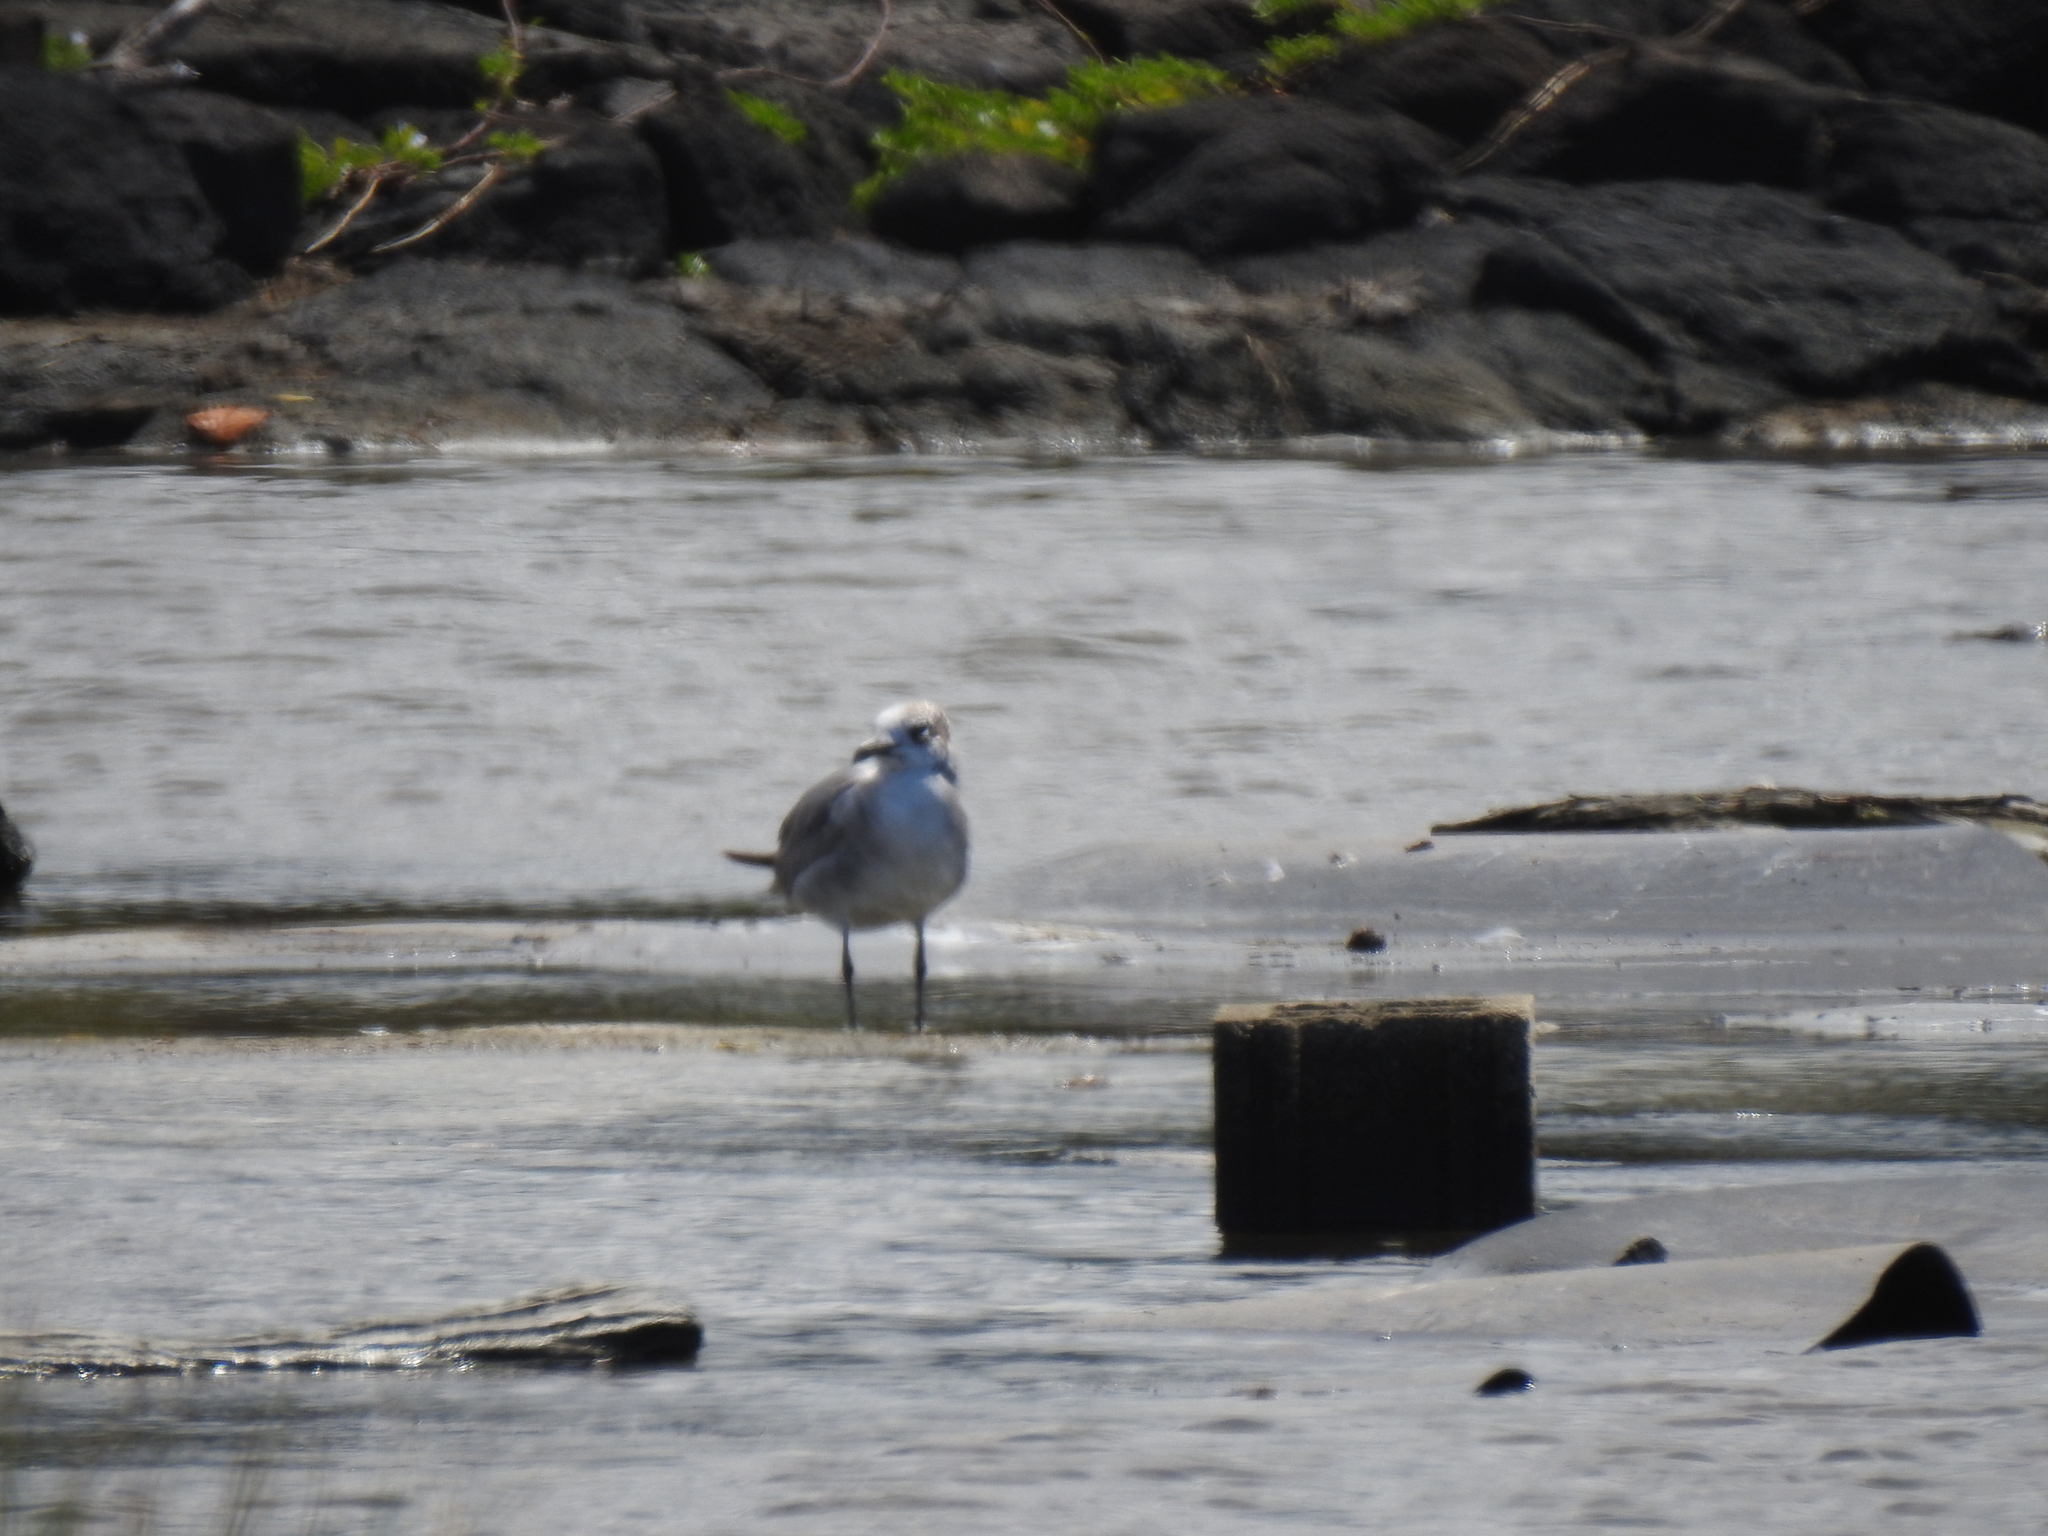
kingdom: Animalia
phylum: Chordata
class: Aves
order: Charadriiformes
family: Laridae
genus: Leucophaeus
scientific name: Leucophaeus atricilla
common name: Laughing gull
